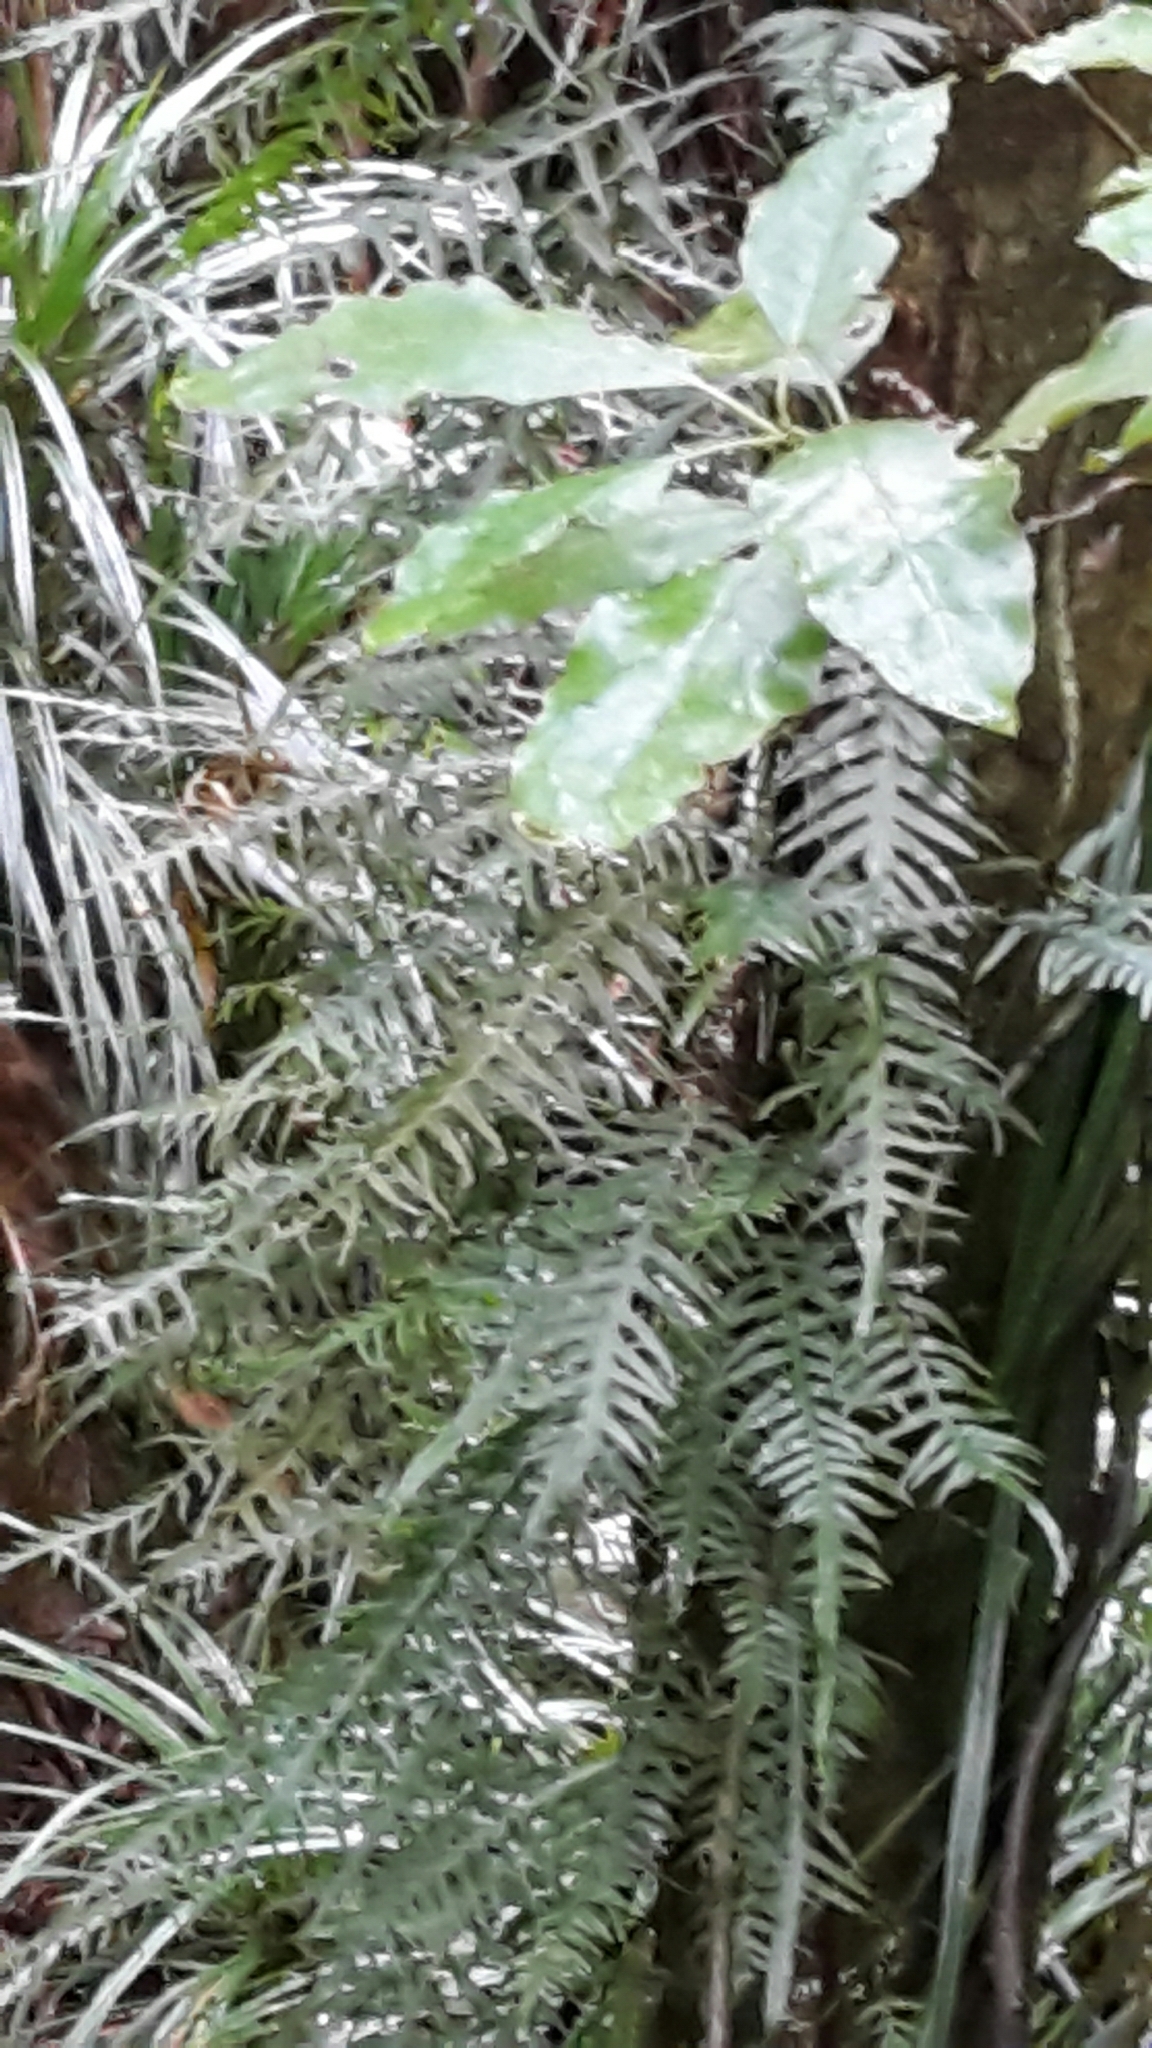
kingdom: Plantae
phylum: Tracheophyta
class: Polypodiopsida
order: Polypodiales
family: Polypodiaceae
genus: Lecanopteris
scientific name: Lecanopteris scandens
